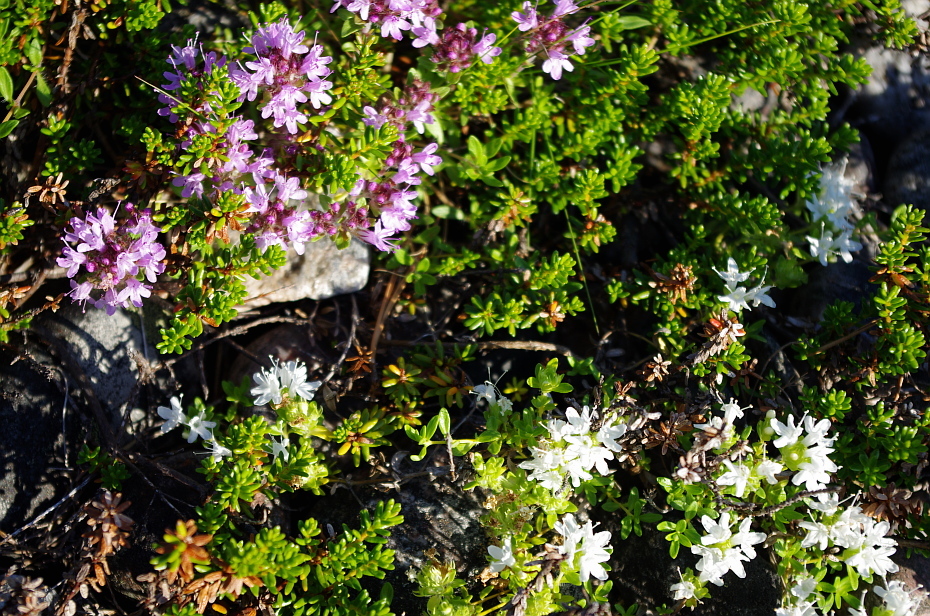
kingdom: Plantae
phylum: Tracheophyta
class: Magnoliopsida
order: Lamiales
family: Lamiaceae
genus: Thymus
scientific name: Thymus serpyllum
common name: Breckland thyme
